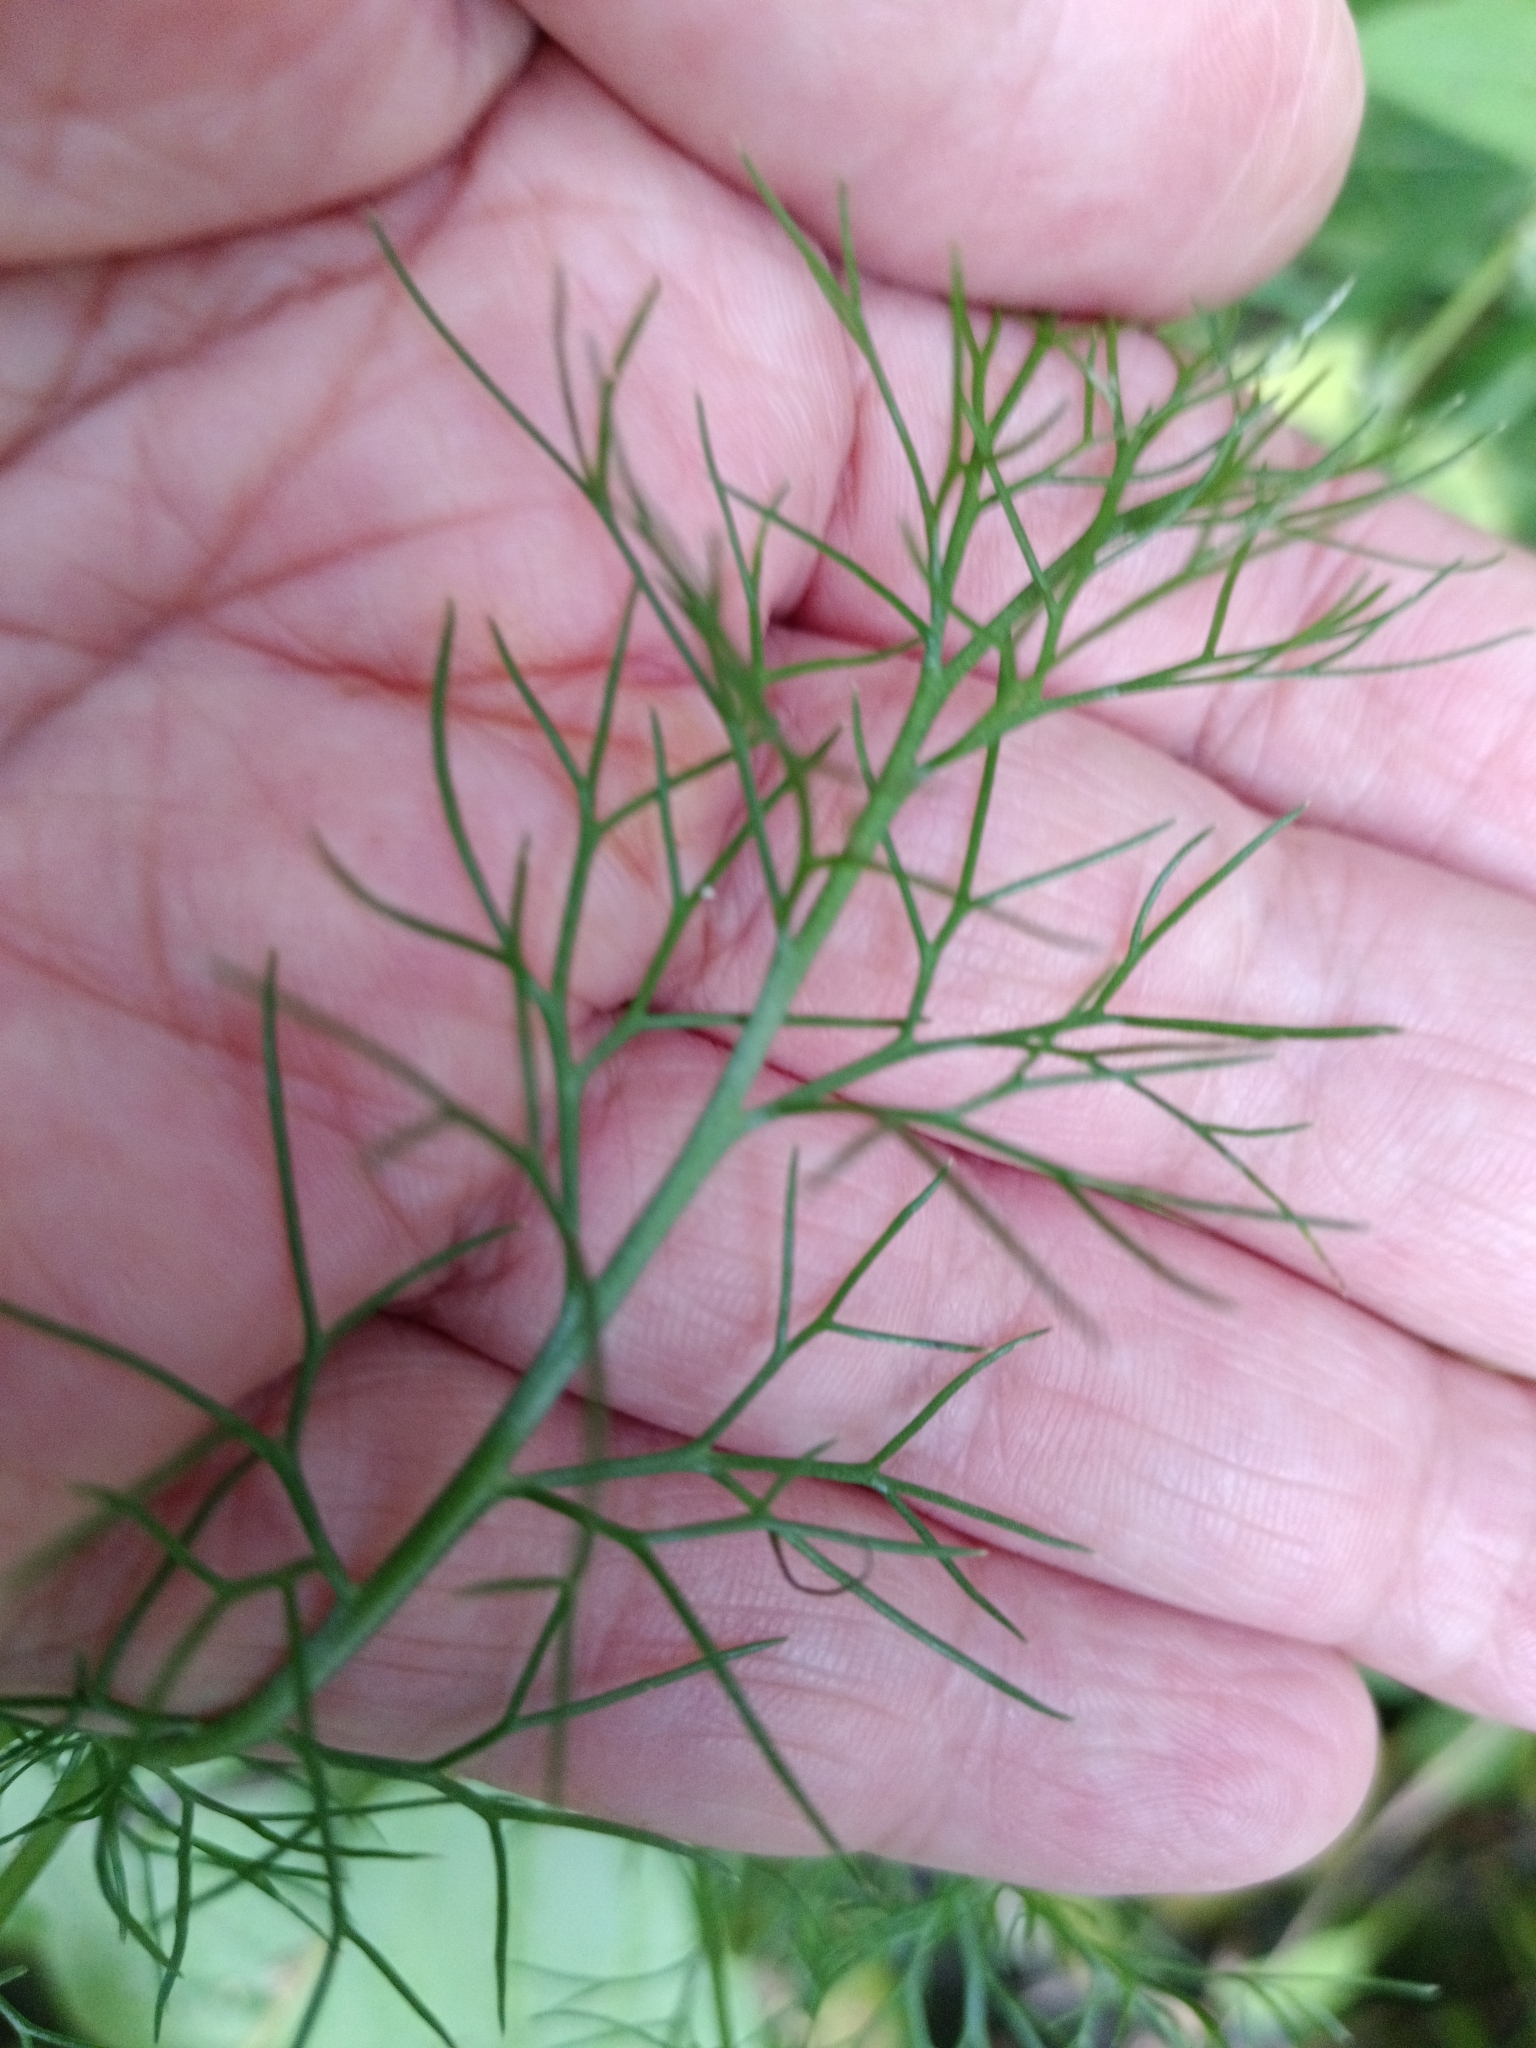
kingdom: Plantae
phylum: Tracheophyta
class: Magnoliopsida
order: Asterales
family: Asteraceae
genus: Tripleurospermum
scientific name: Tripleurospermum inodorum
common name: Scentless mayweed
